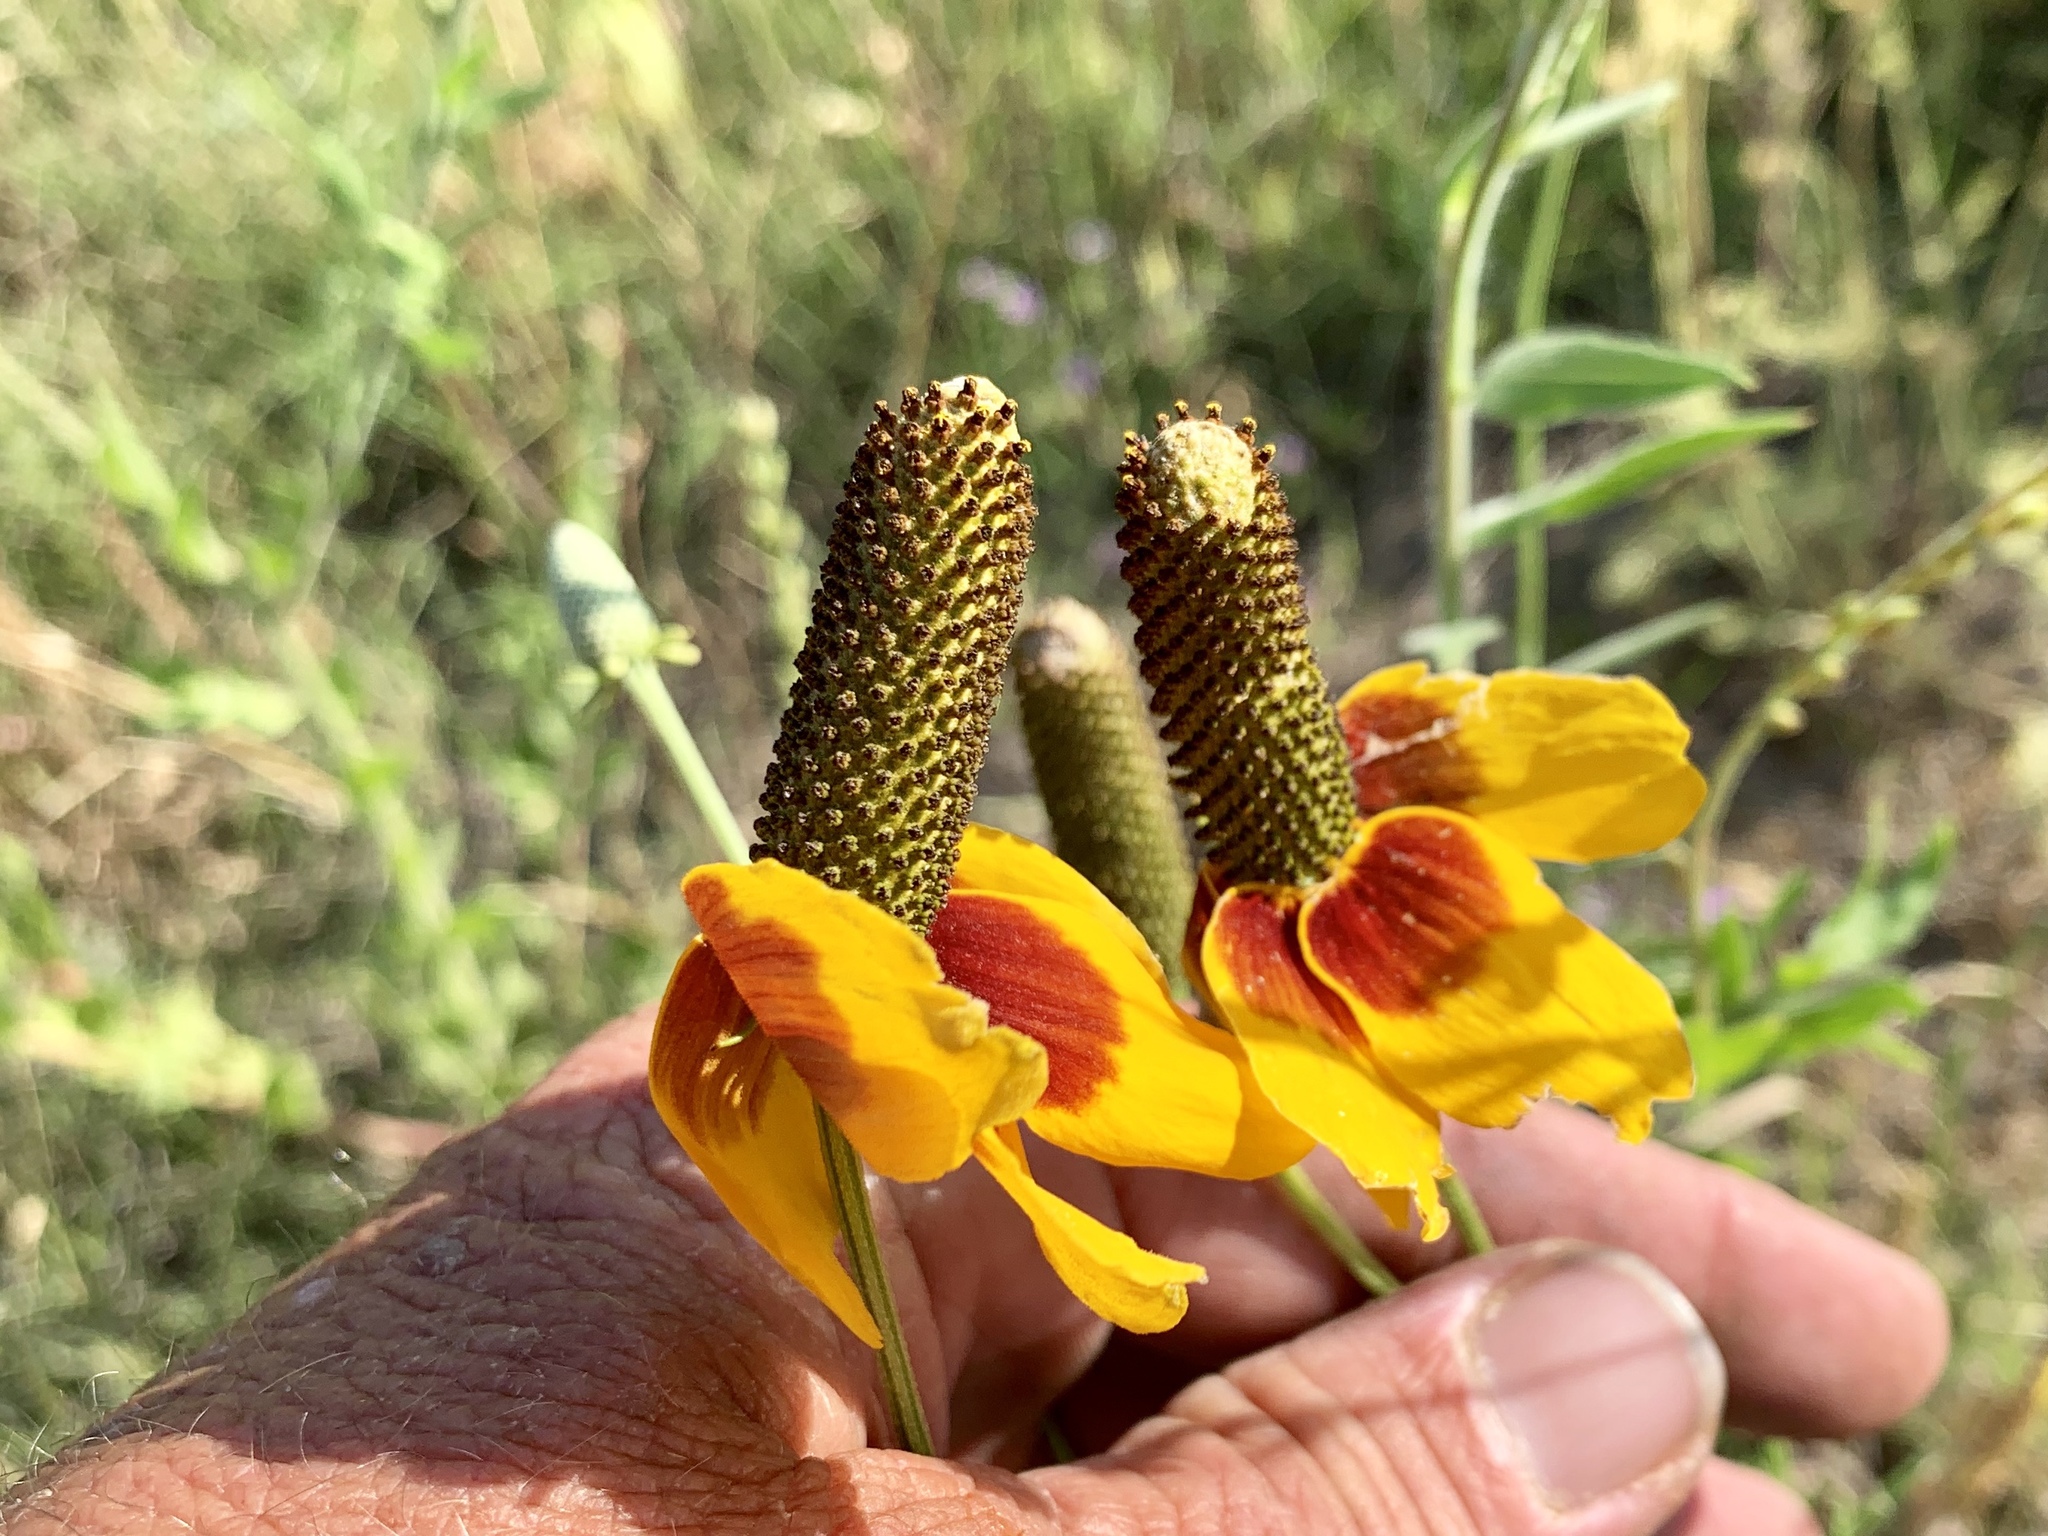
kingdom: Plantae
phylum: Tracheophyta
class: Magnoliopsida
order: Asterales
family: Asteraceae
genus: Ratibida
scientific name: Ratibida columnifera
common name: Prairie coneflower
